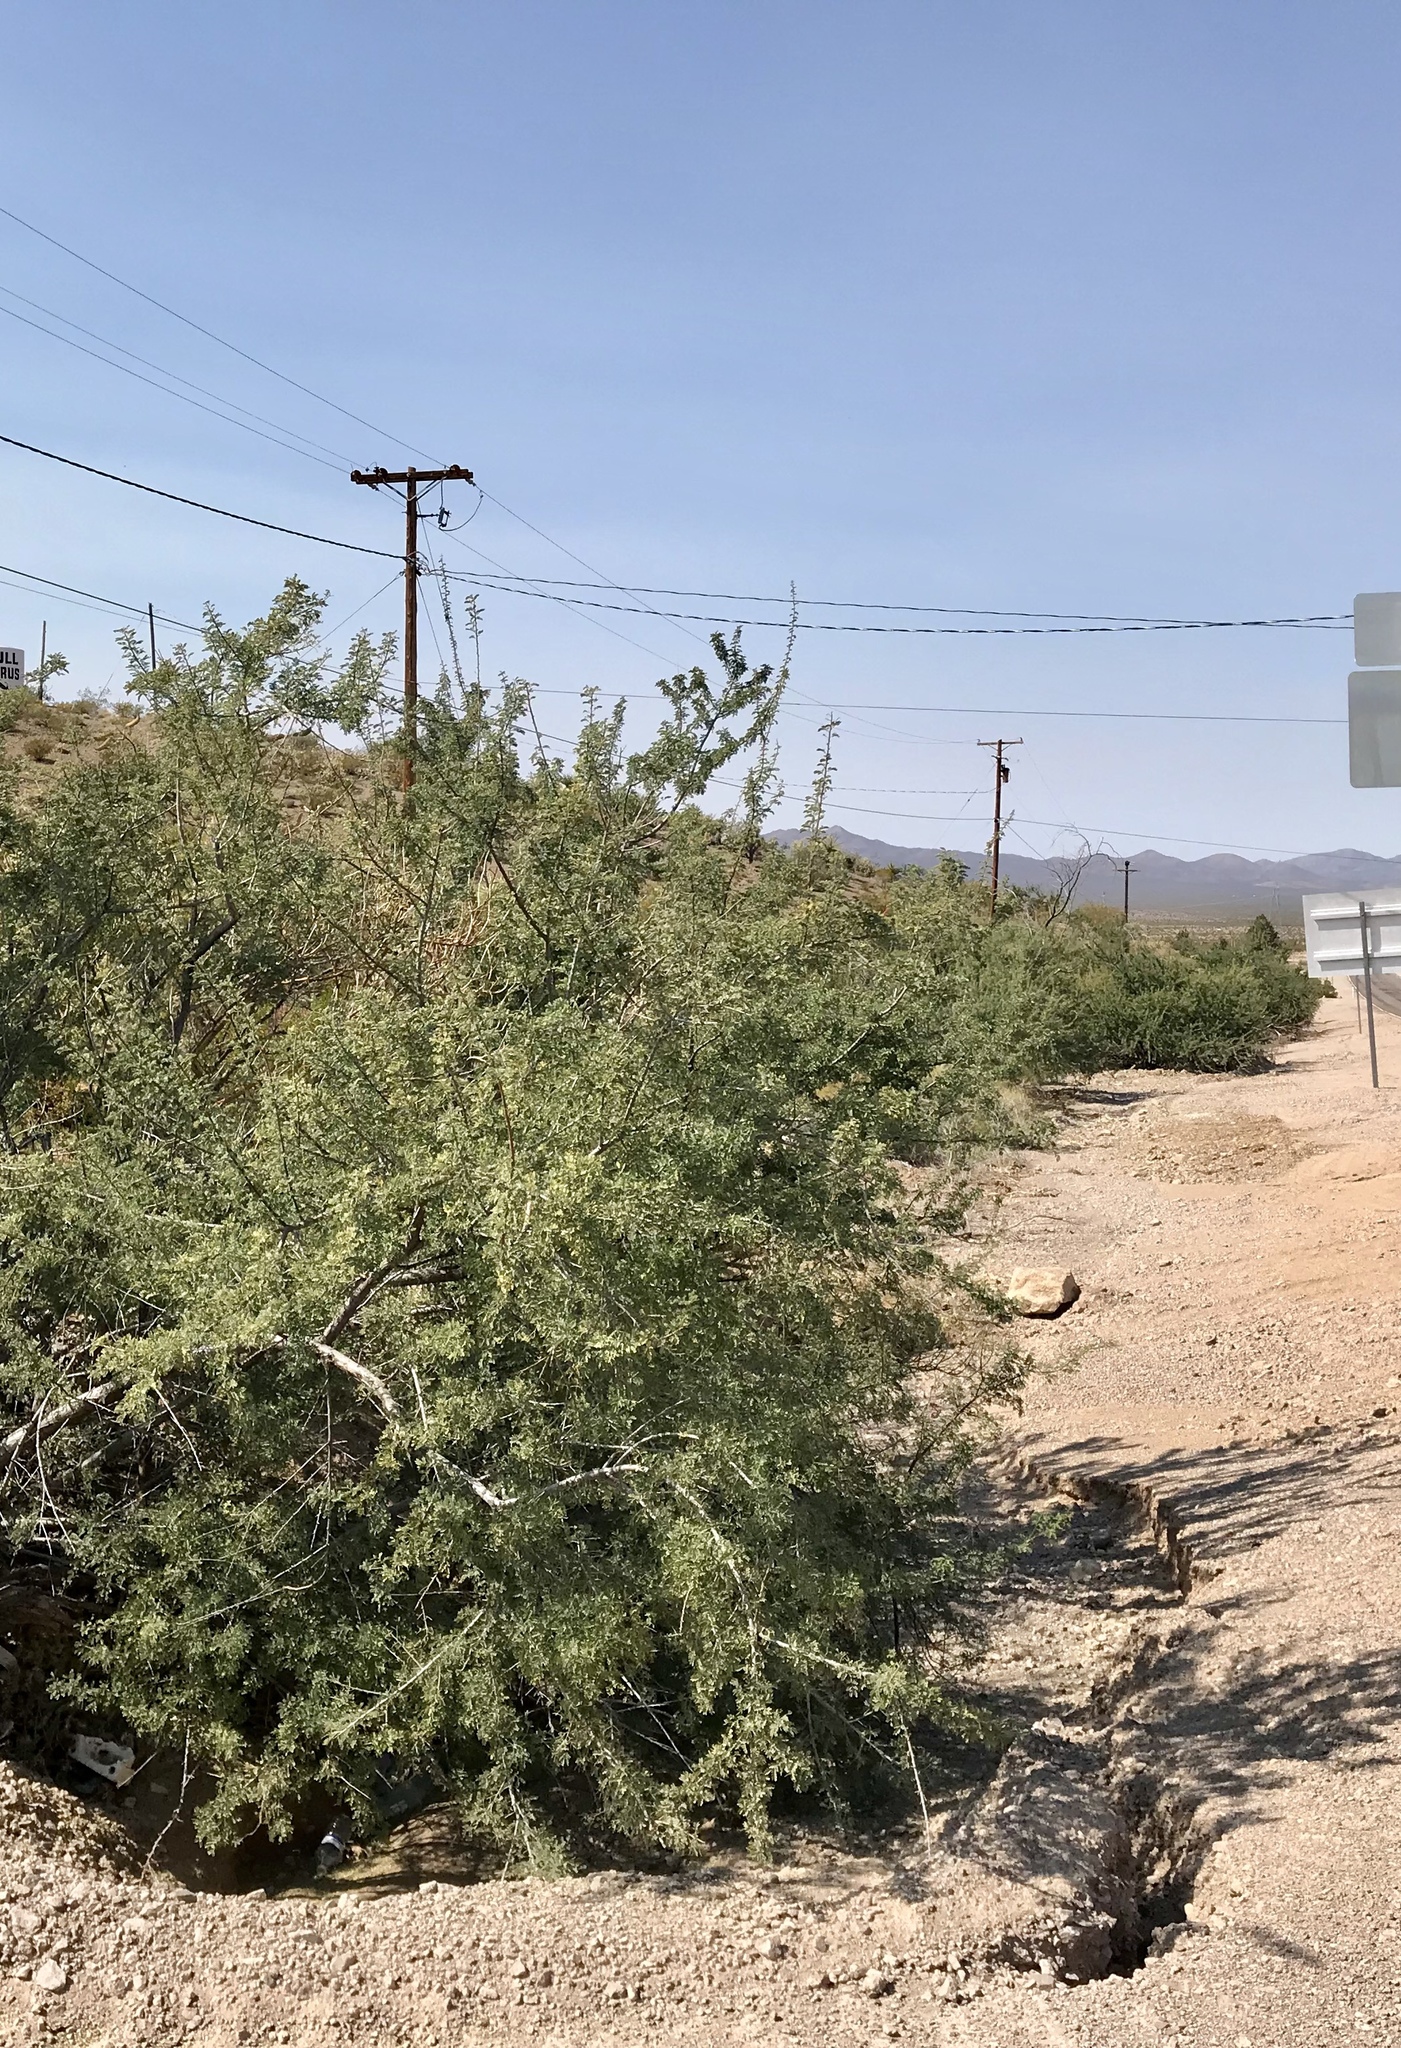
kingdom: Plantae
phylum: Tracheophyta
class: Magnoliopsida
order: Fabales
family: Fabaceae
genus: Senegalia
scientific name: Senegalia greggii
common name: Texas-mimosa
